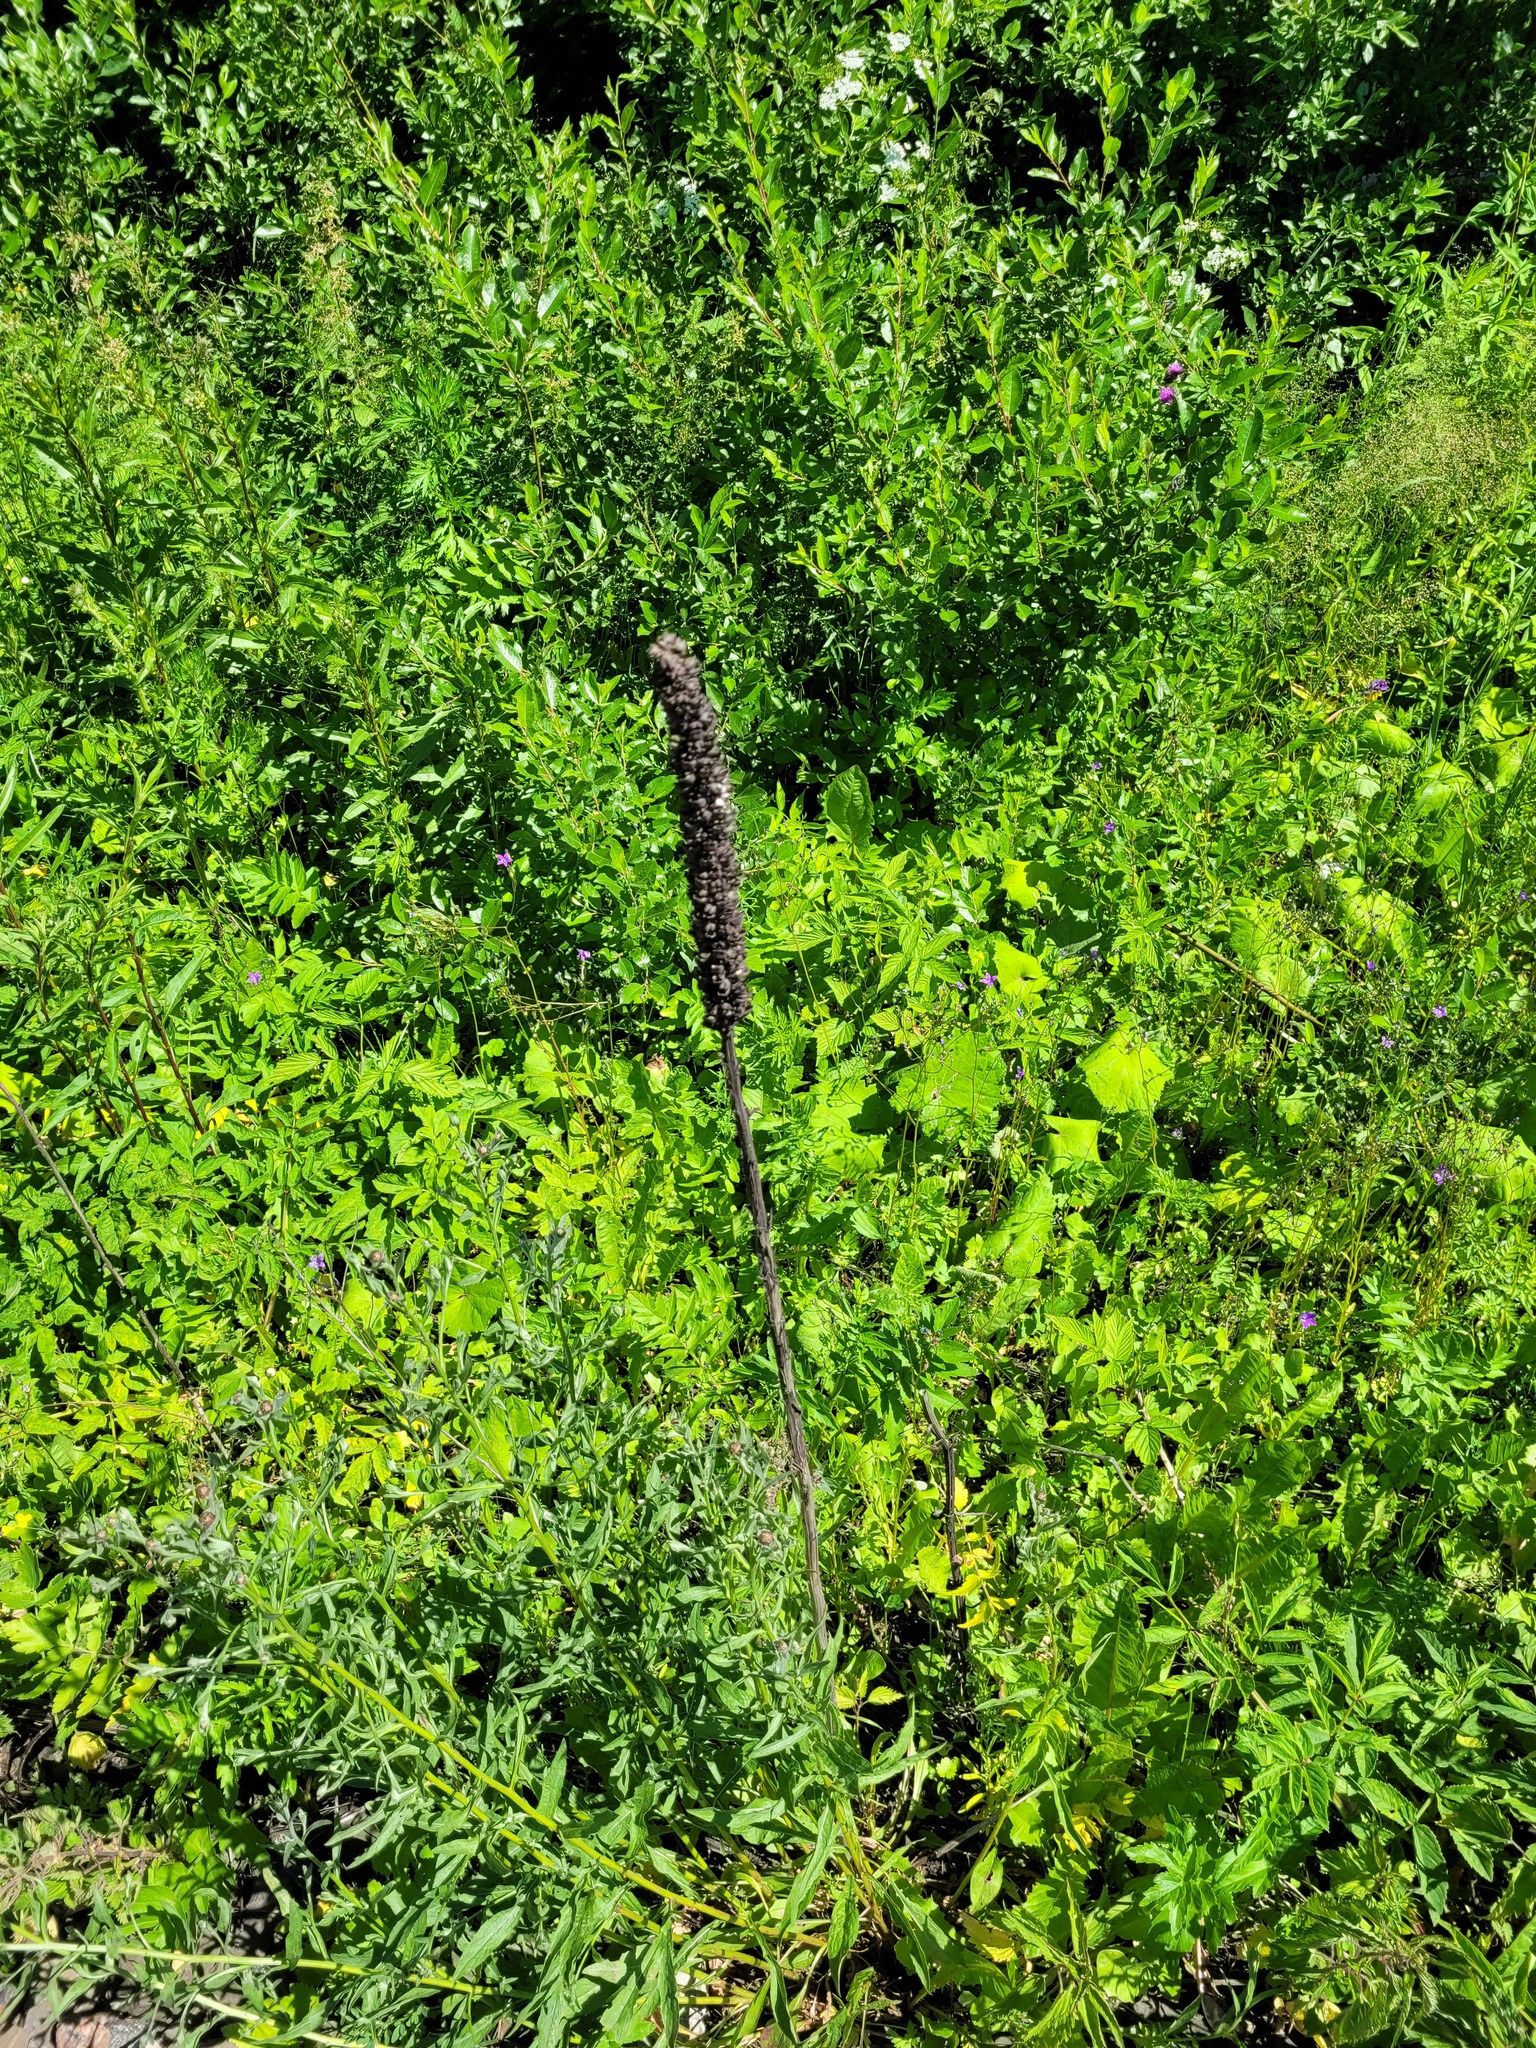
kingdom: Plantae
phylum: Tracheophyta
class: Magnoliopsida
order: Lamiales
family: Scrophulariaceae
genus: Verbascum
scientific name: Verbascum thapsus
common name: Common mullein
